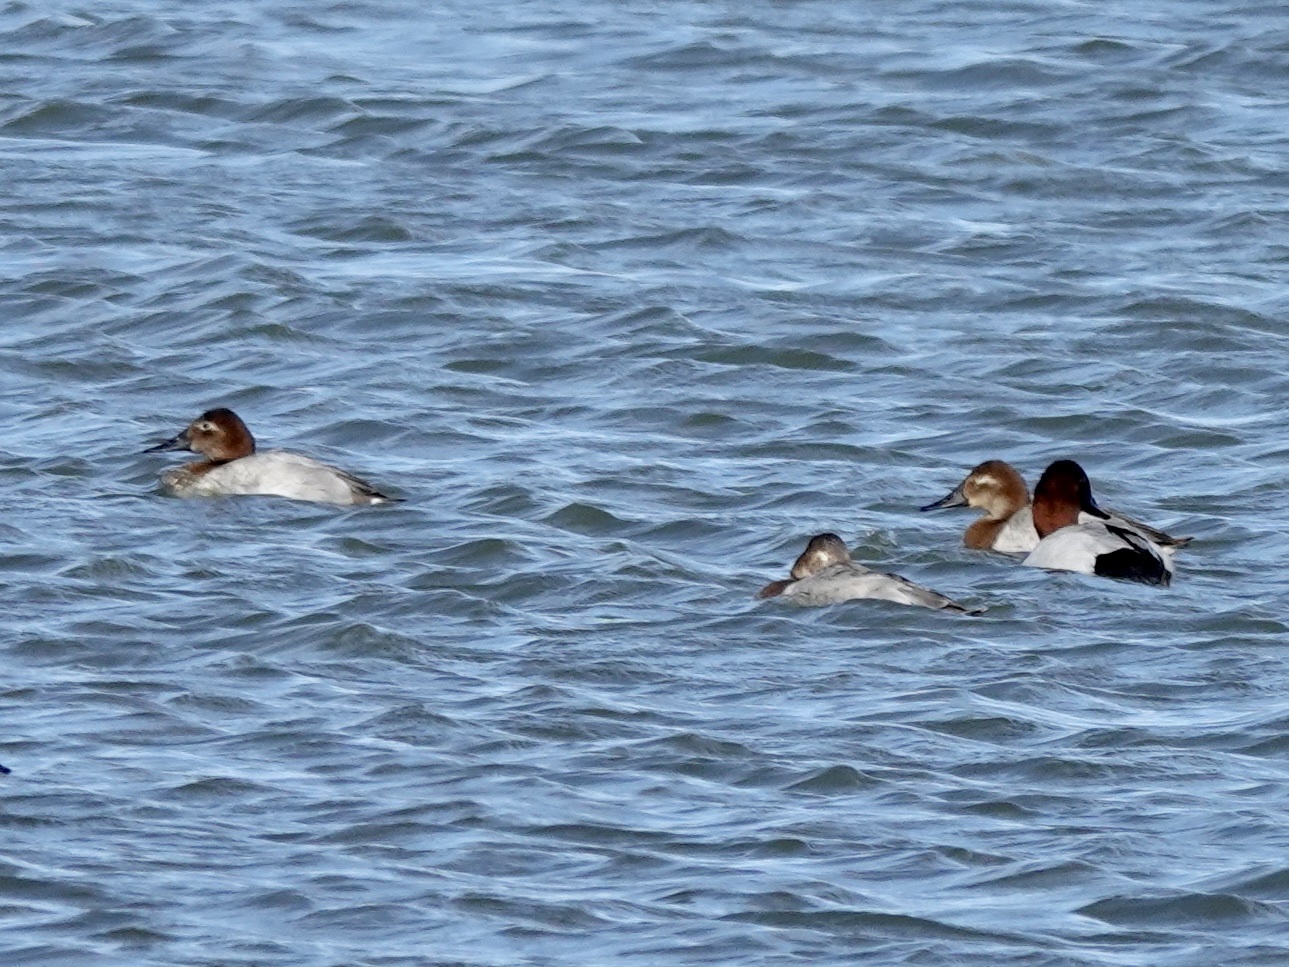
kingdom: Animalia
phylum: Chordata
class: Aves
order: Anseriformes
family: Anatidae
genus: Aythya
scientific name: Aythya valisineria
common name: Canvasback
